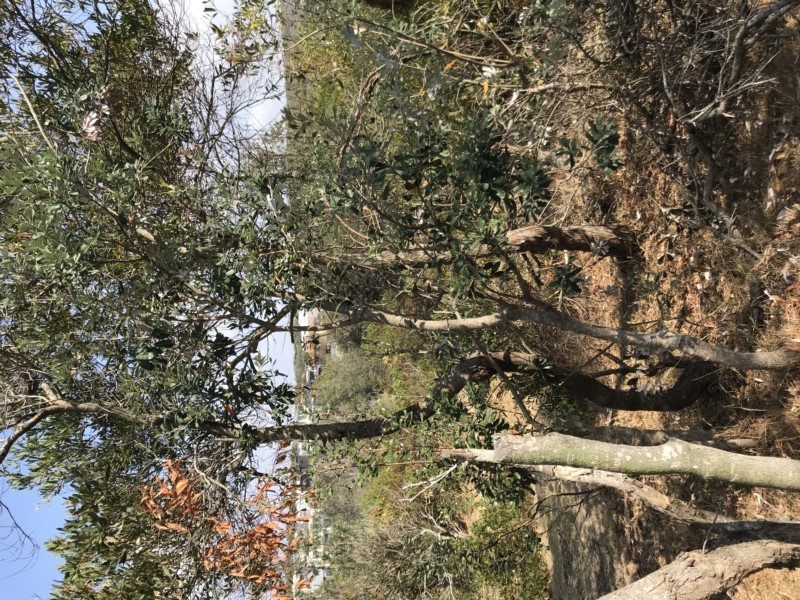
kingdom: Plantae
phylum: Tracheophyta
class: Magnoliopsida
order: Proteales
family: Proteaceae
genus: Banksia
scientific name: Banksia integrifolia
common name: White-honeysuckle
